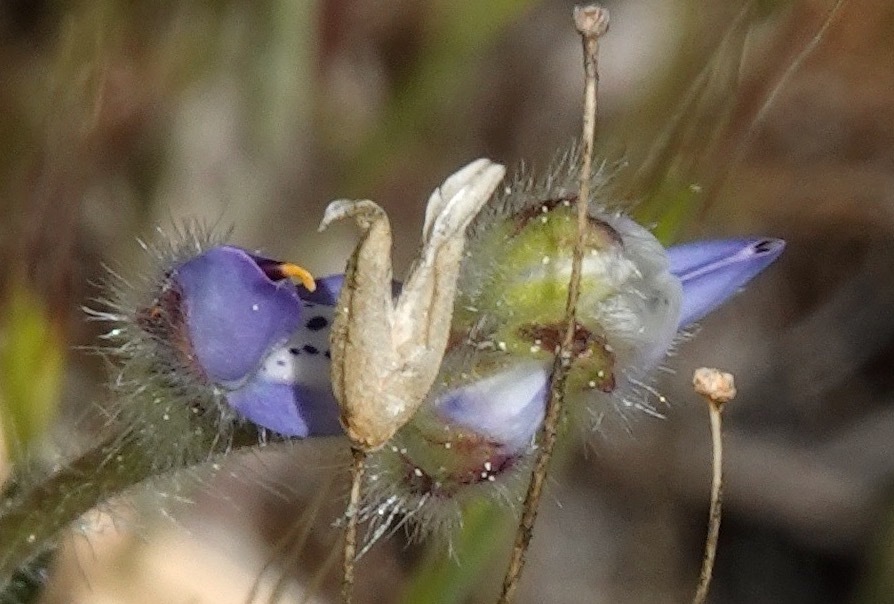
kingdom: Plantae
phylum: Tracheophyta
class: Magnoliopsida
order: Fabales
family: Fabaceae
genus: Lupinus
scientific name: Lupinus bicolor
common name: Miniature lupine
